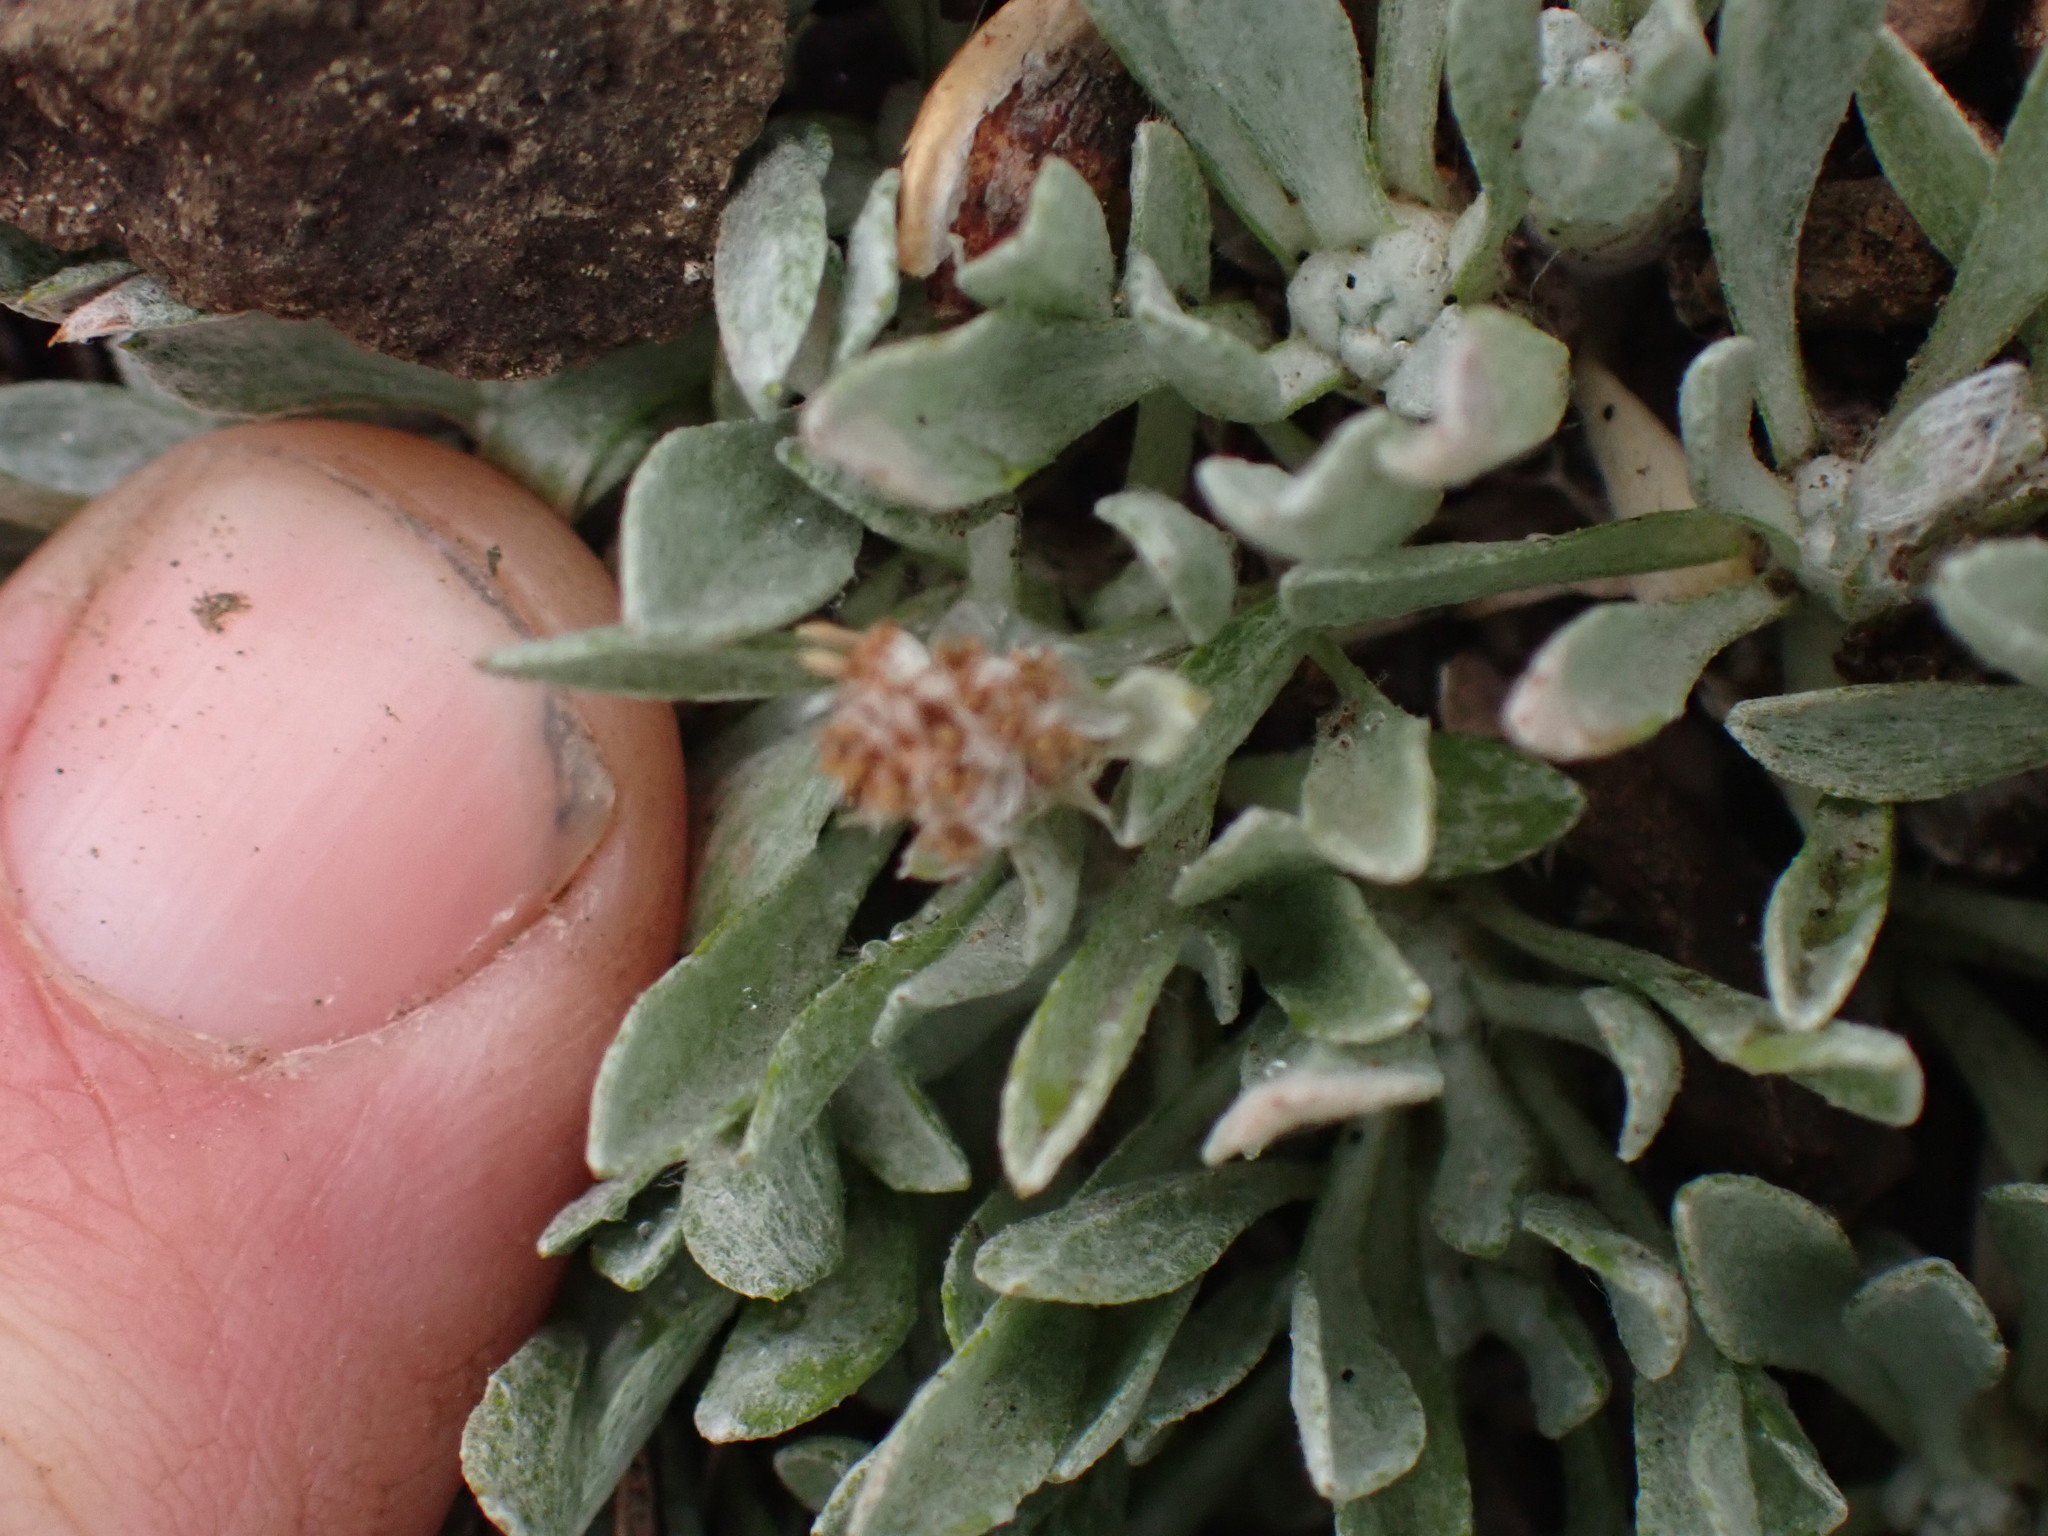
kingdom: Plantae
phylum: Tracheophyta
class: Magnoliopsida
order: Asterales
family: Asteraceae
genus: Antennaria
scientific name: Antennaria dimorpha
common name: Cushion pussytoes
